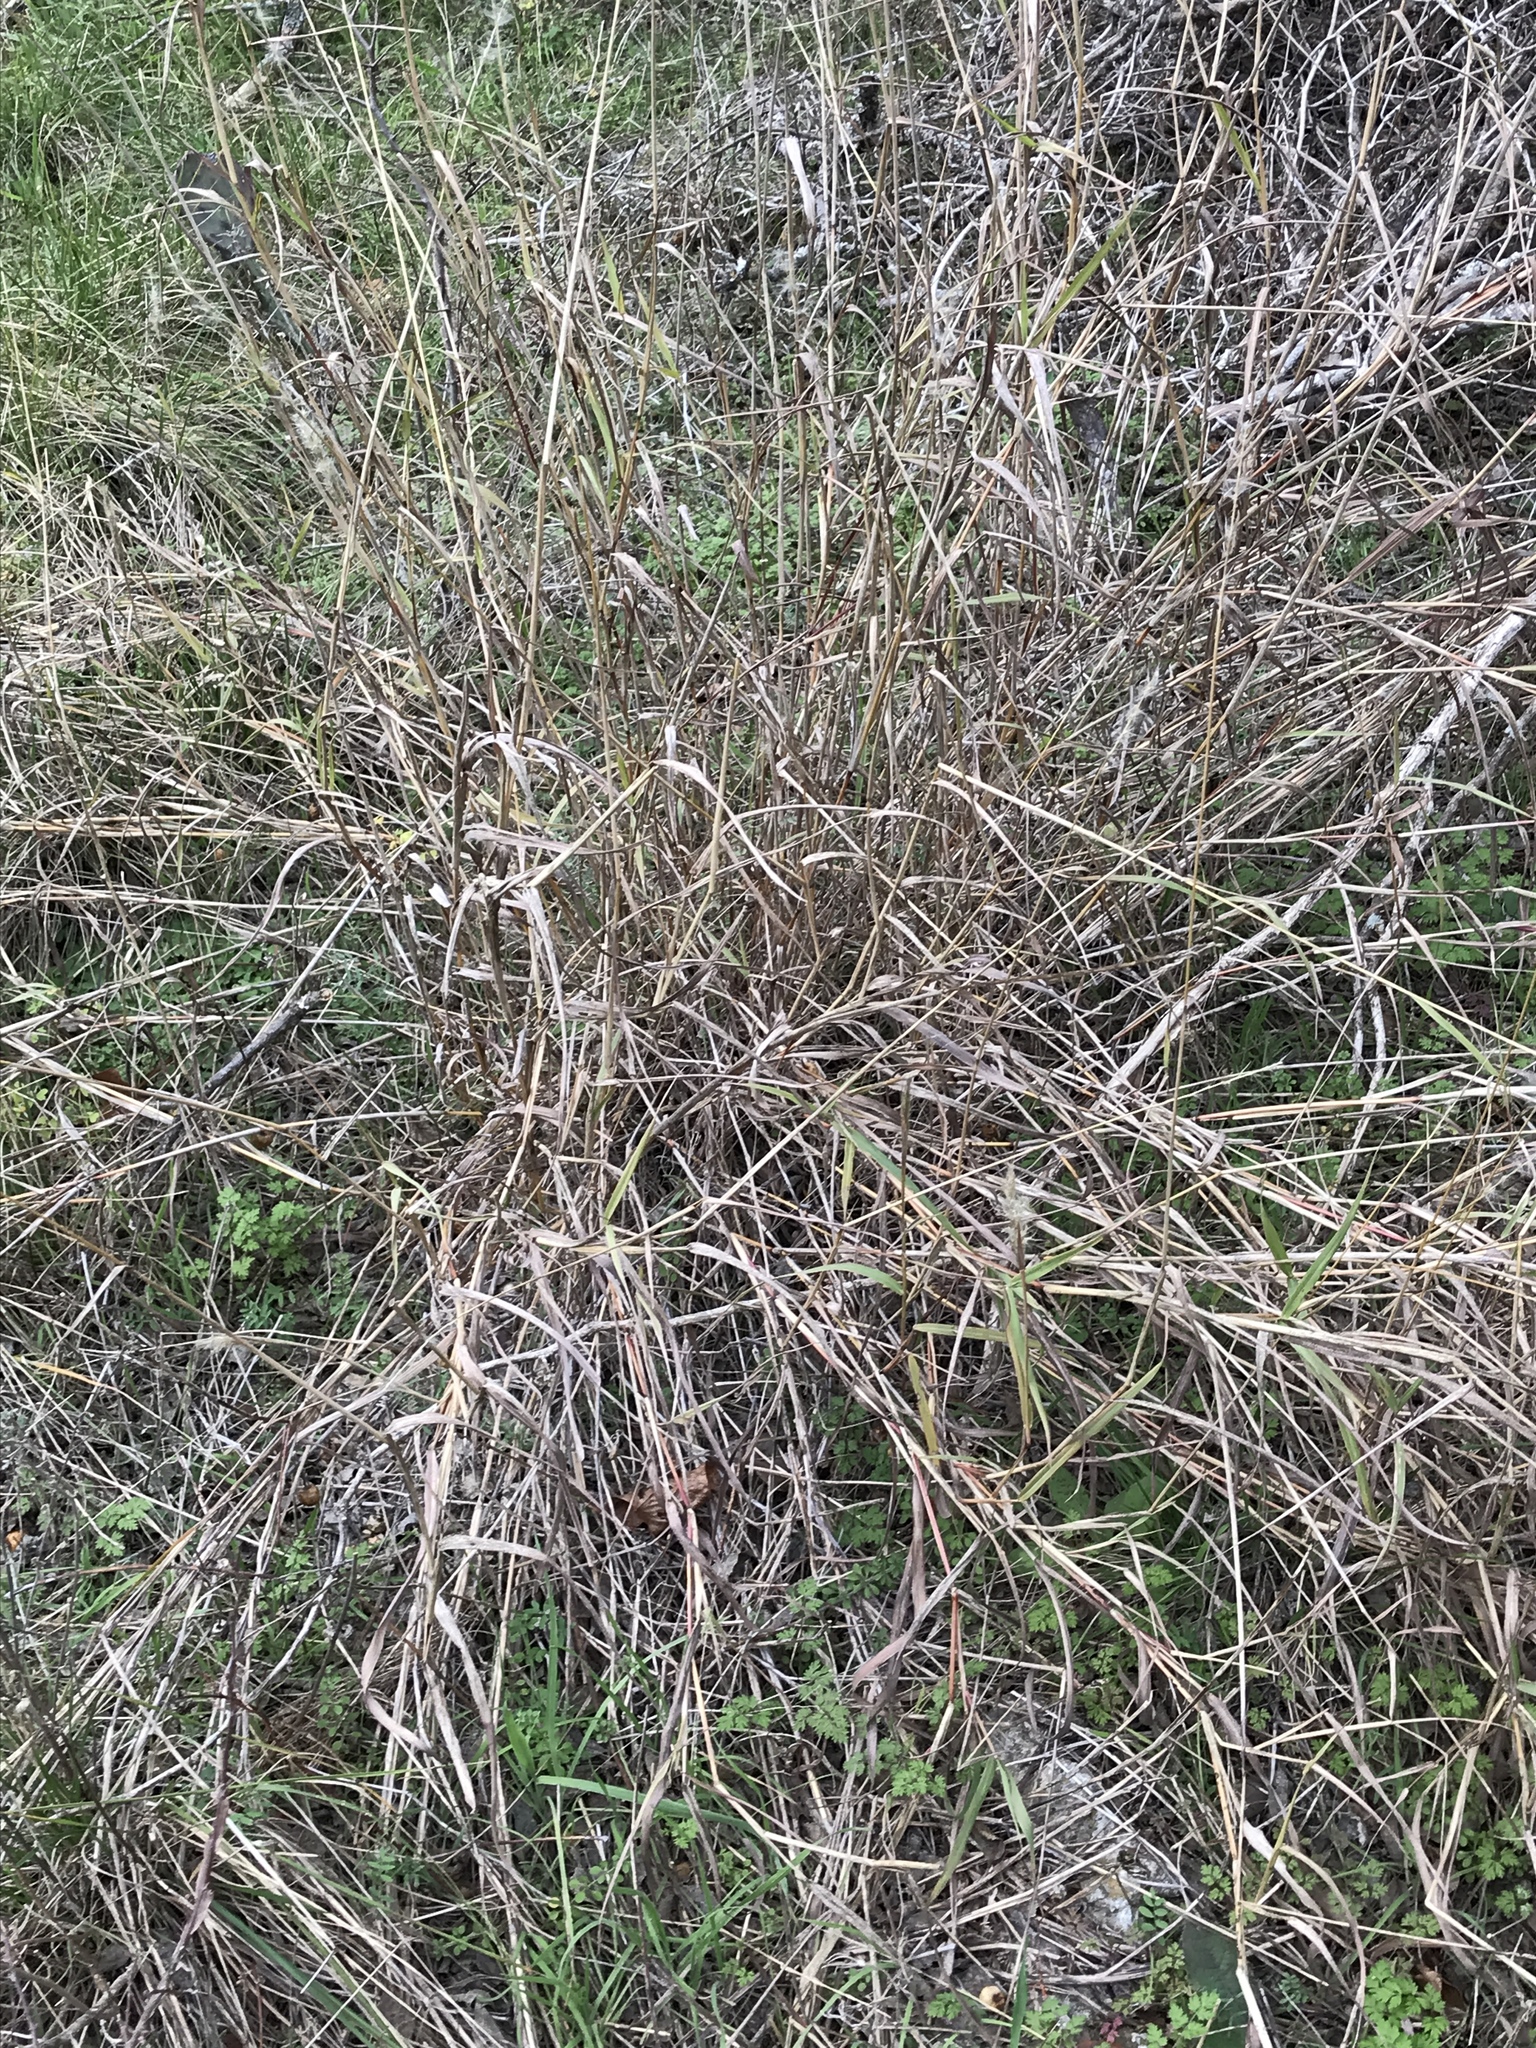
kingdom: Plantae
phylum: Tracheophyta
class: Liliopsida
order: Poales
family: Poaceae
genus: Bothriochloa
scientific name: Bothriochloa torreyana
